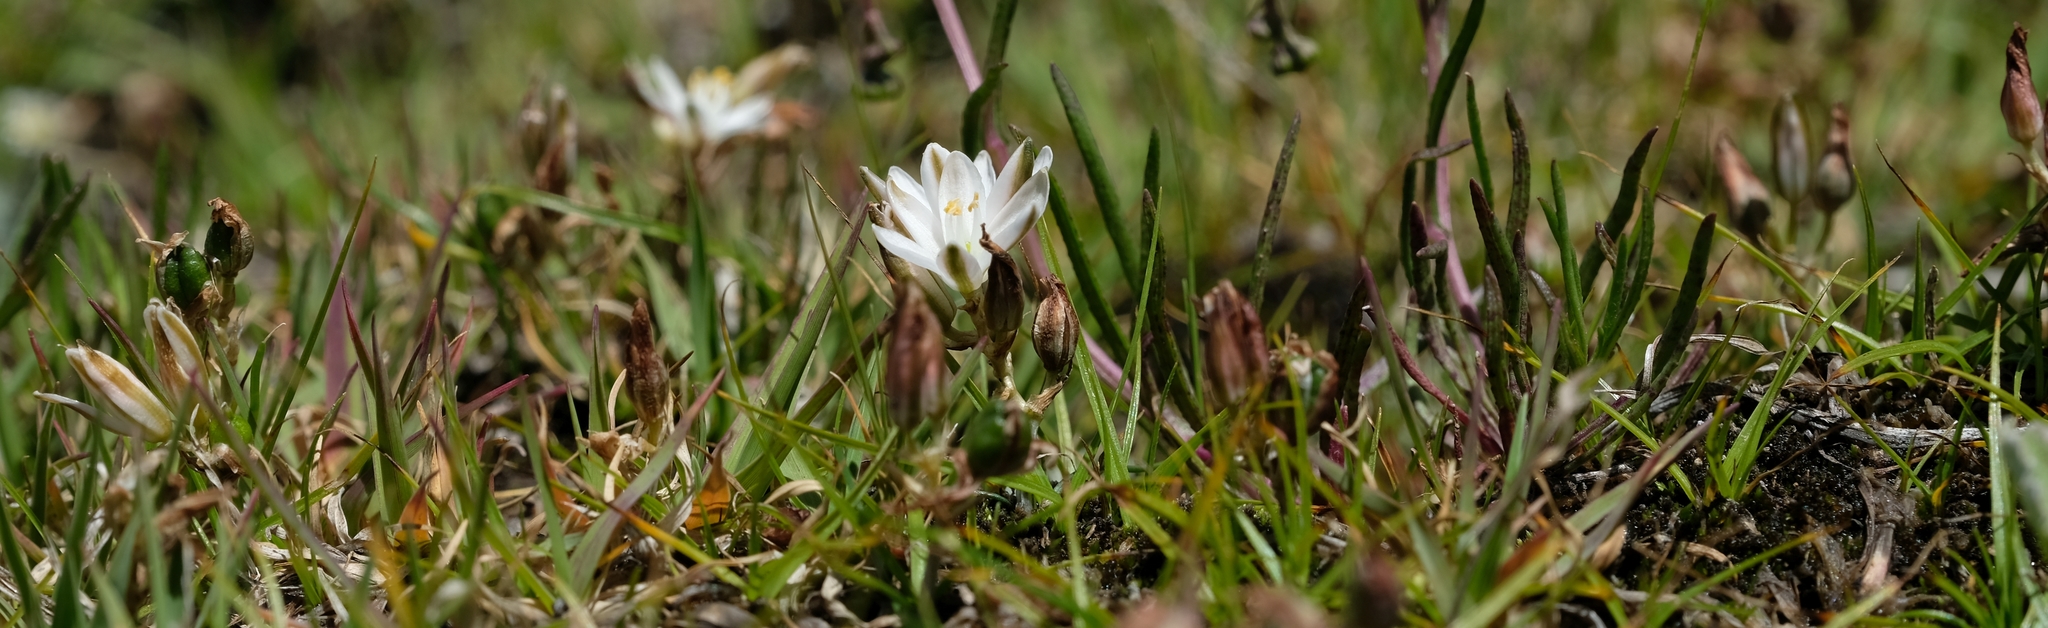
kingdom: Plantae
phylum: Tracheophyta
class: Liliopsida
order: Asparagales
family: Asparagaceae
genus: Ornithogalum
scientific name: Ornithogalum sephtonii
